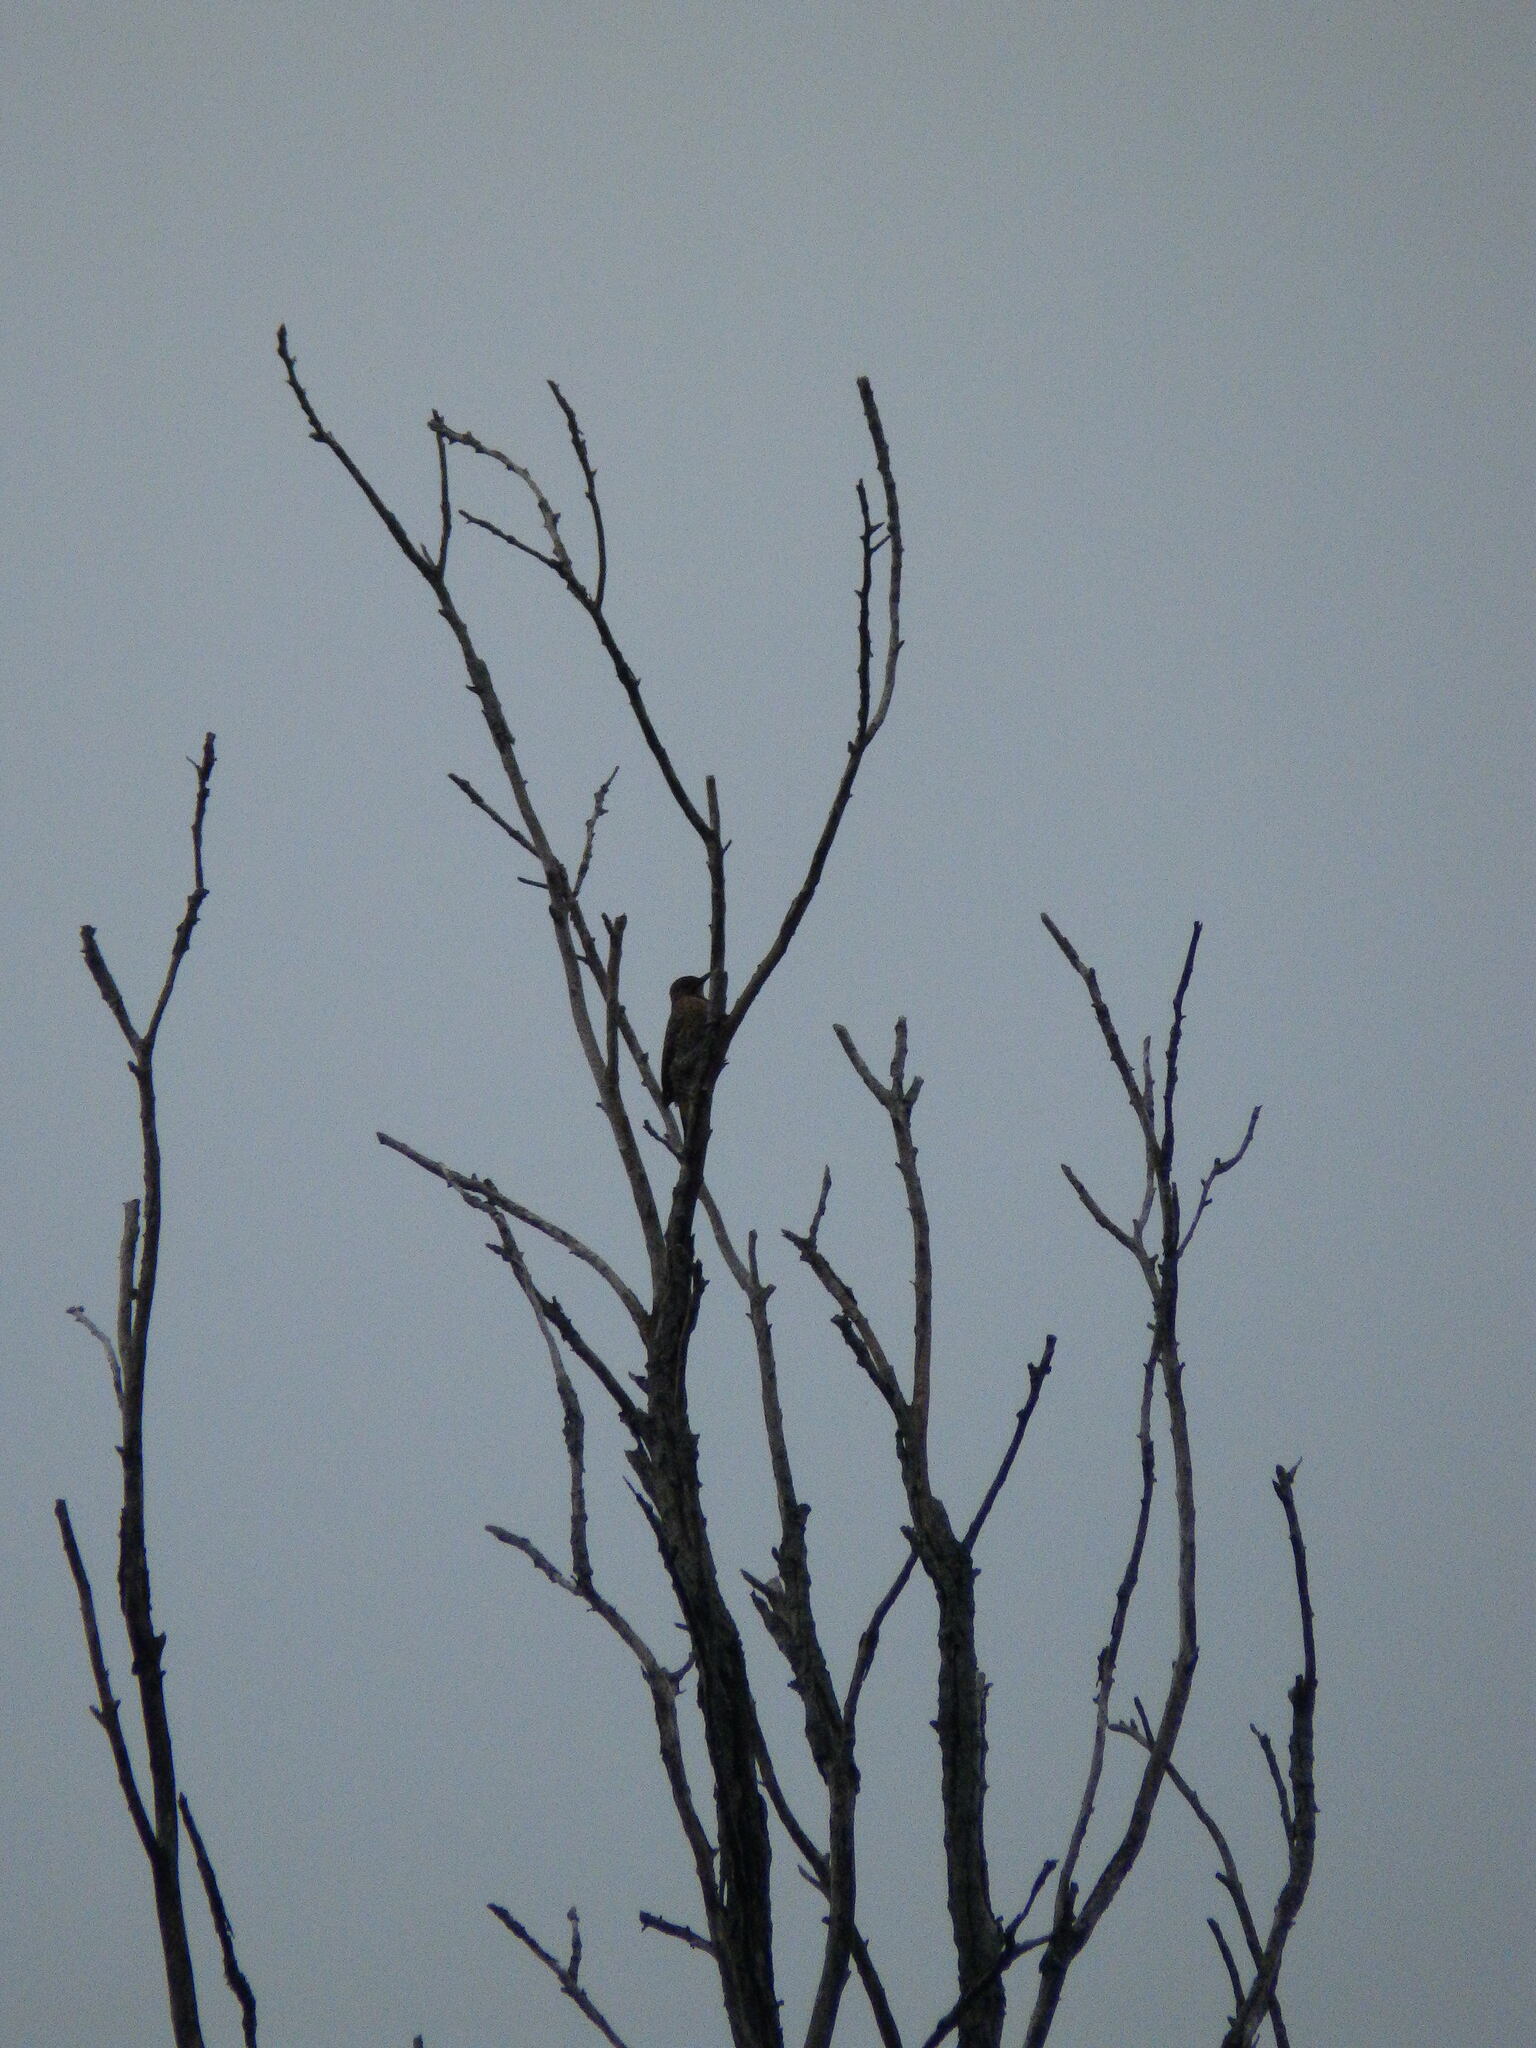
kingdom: Animalia
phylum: Chordata
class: Aves
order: Piciformes
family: Picidae
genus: Colaptes
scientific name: Colaptes auratus
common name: Northern flicker
